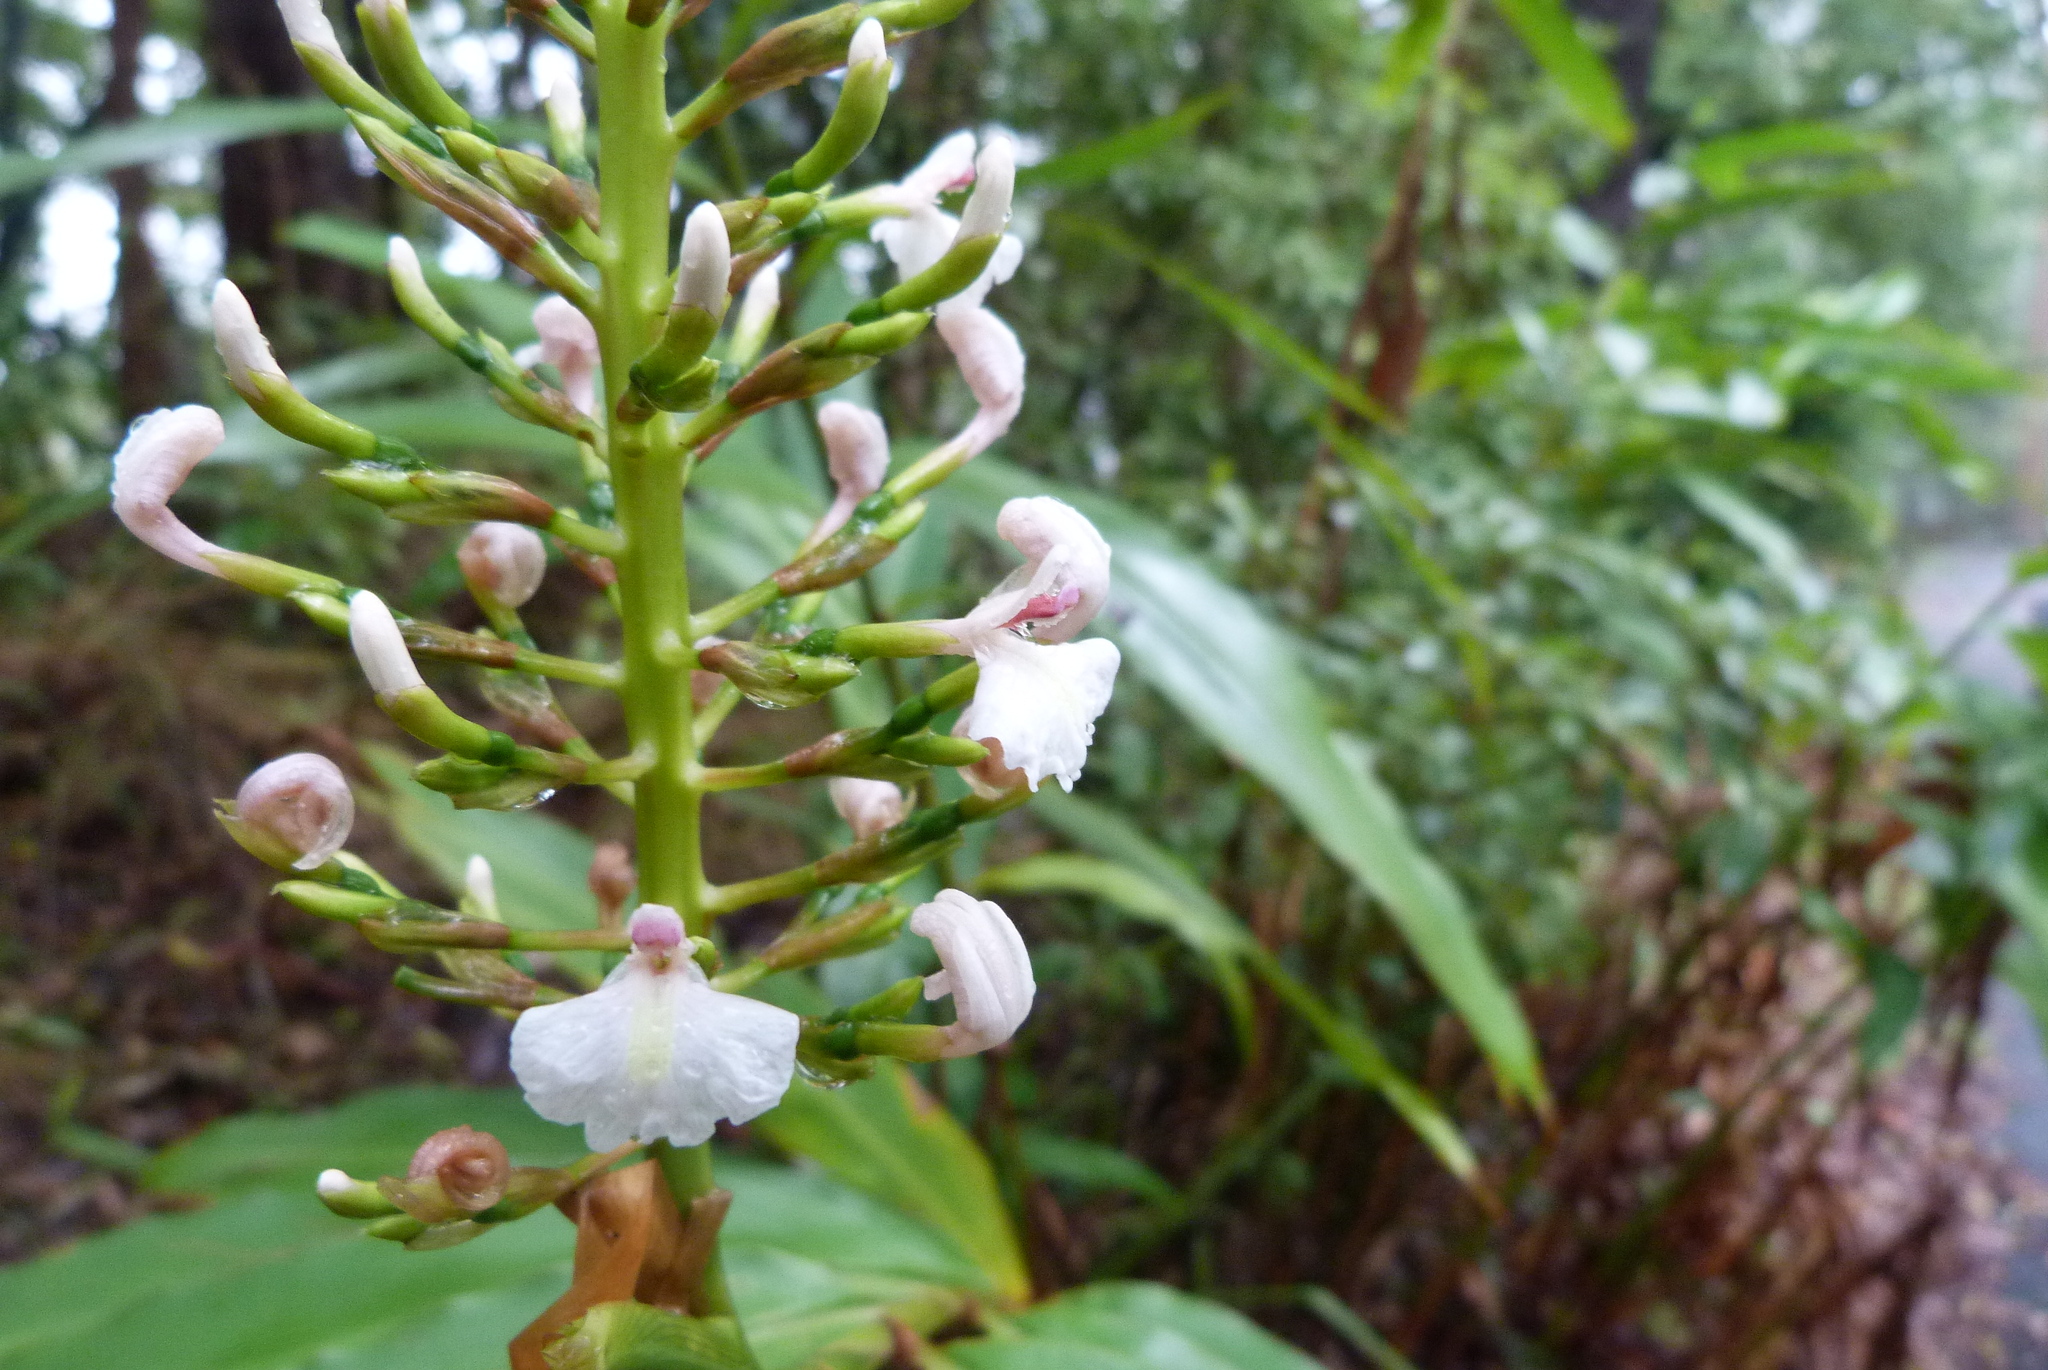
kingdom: Plantae
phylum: Tracheophyta
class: Liliopsida
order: Zingiberales
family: Zingiberaceae
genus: Alpinia
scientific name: Alpinia caerulea
